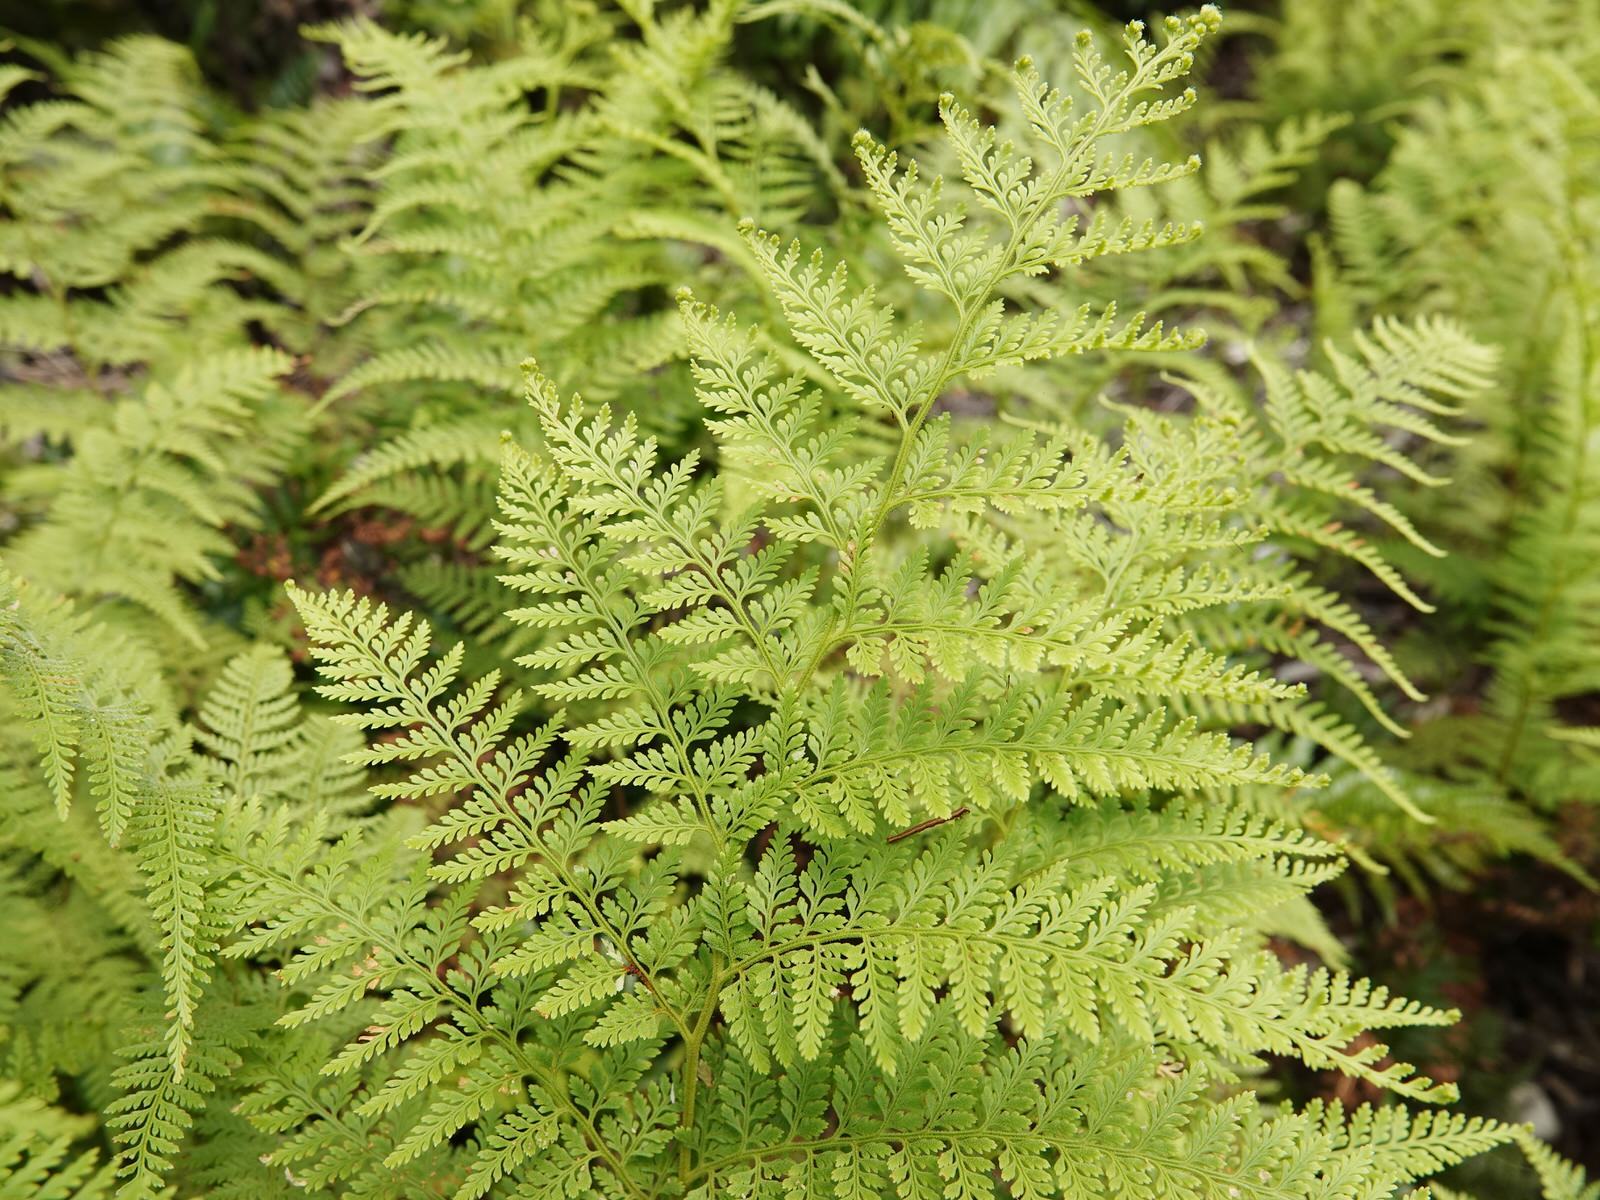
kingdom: Plantae
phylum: Tracheophyta
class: Polypodiopsida
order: Polypodiales
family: Dennstaedtiaceae
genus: Paesia
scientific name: Paesia scaberula
